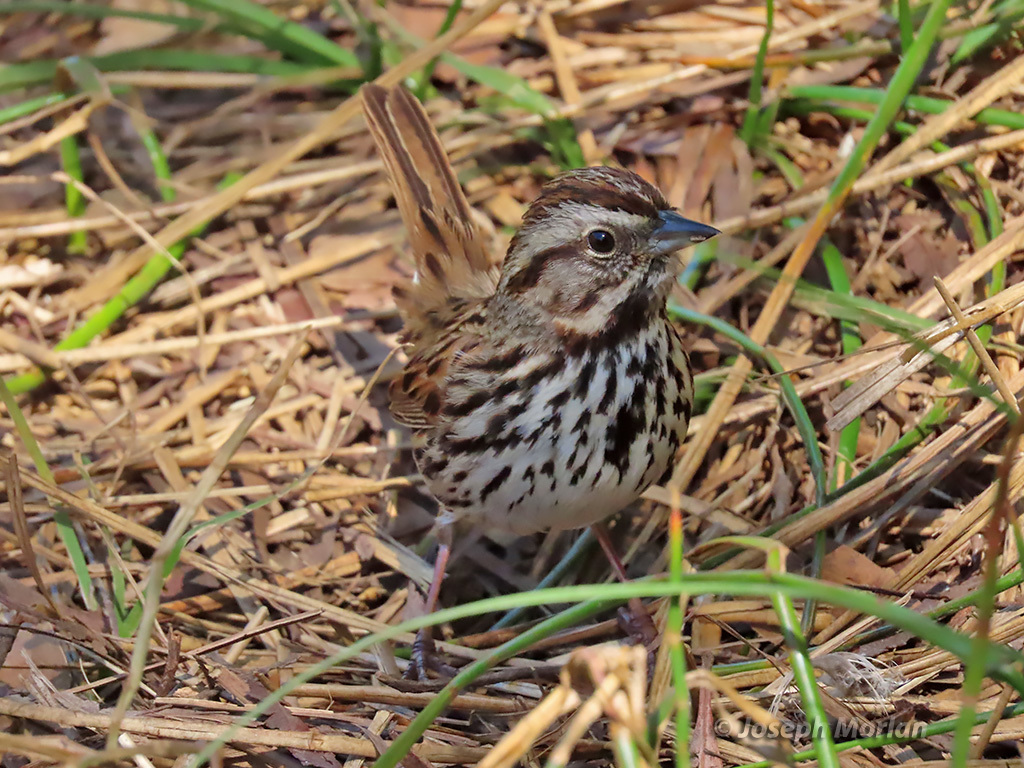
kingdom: Animalia
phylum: Chordata
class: Aves
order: Passeriformes
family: Passerellidae
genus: Melospiza
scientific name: Melospiza melodia
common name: Song sparrow
